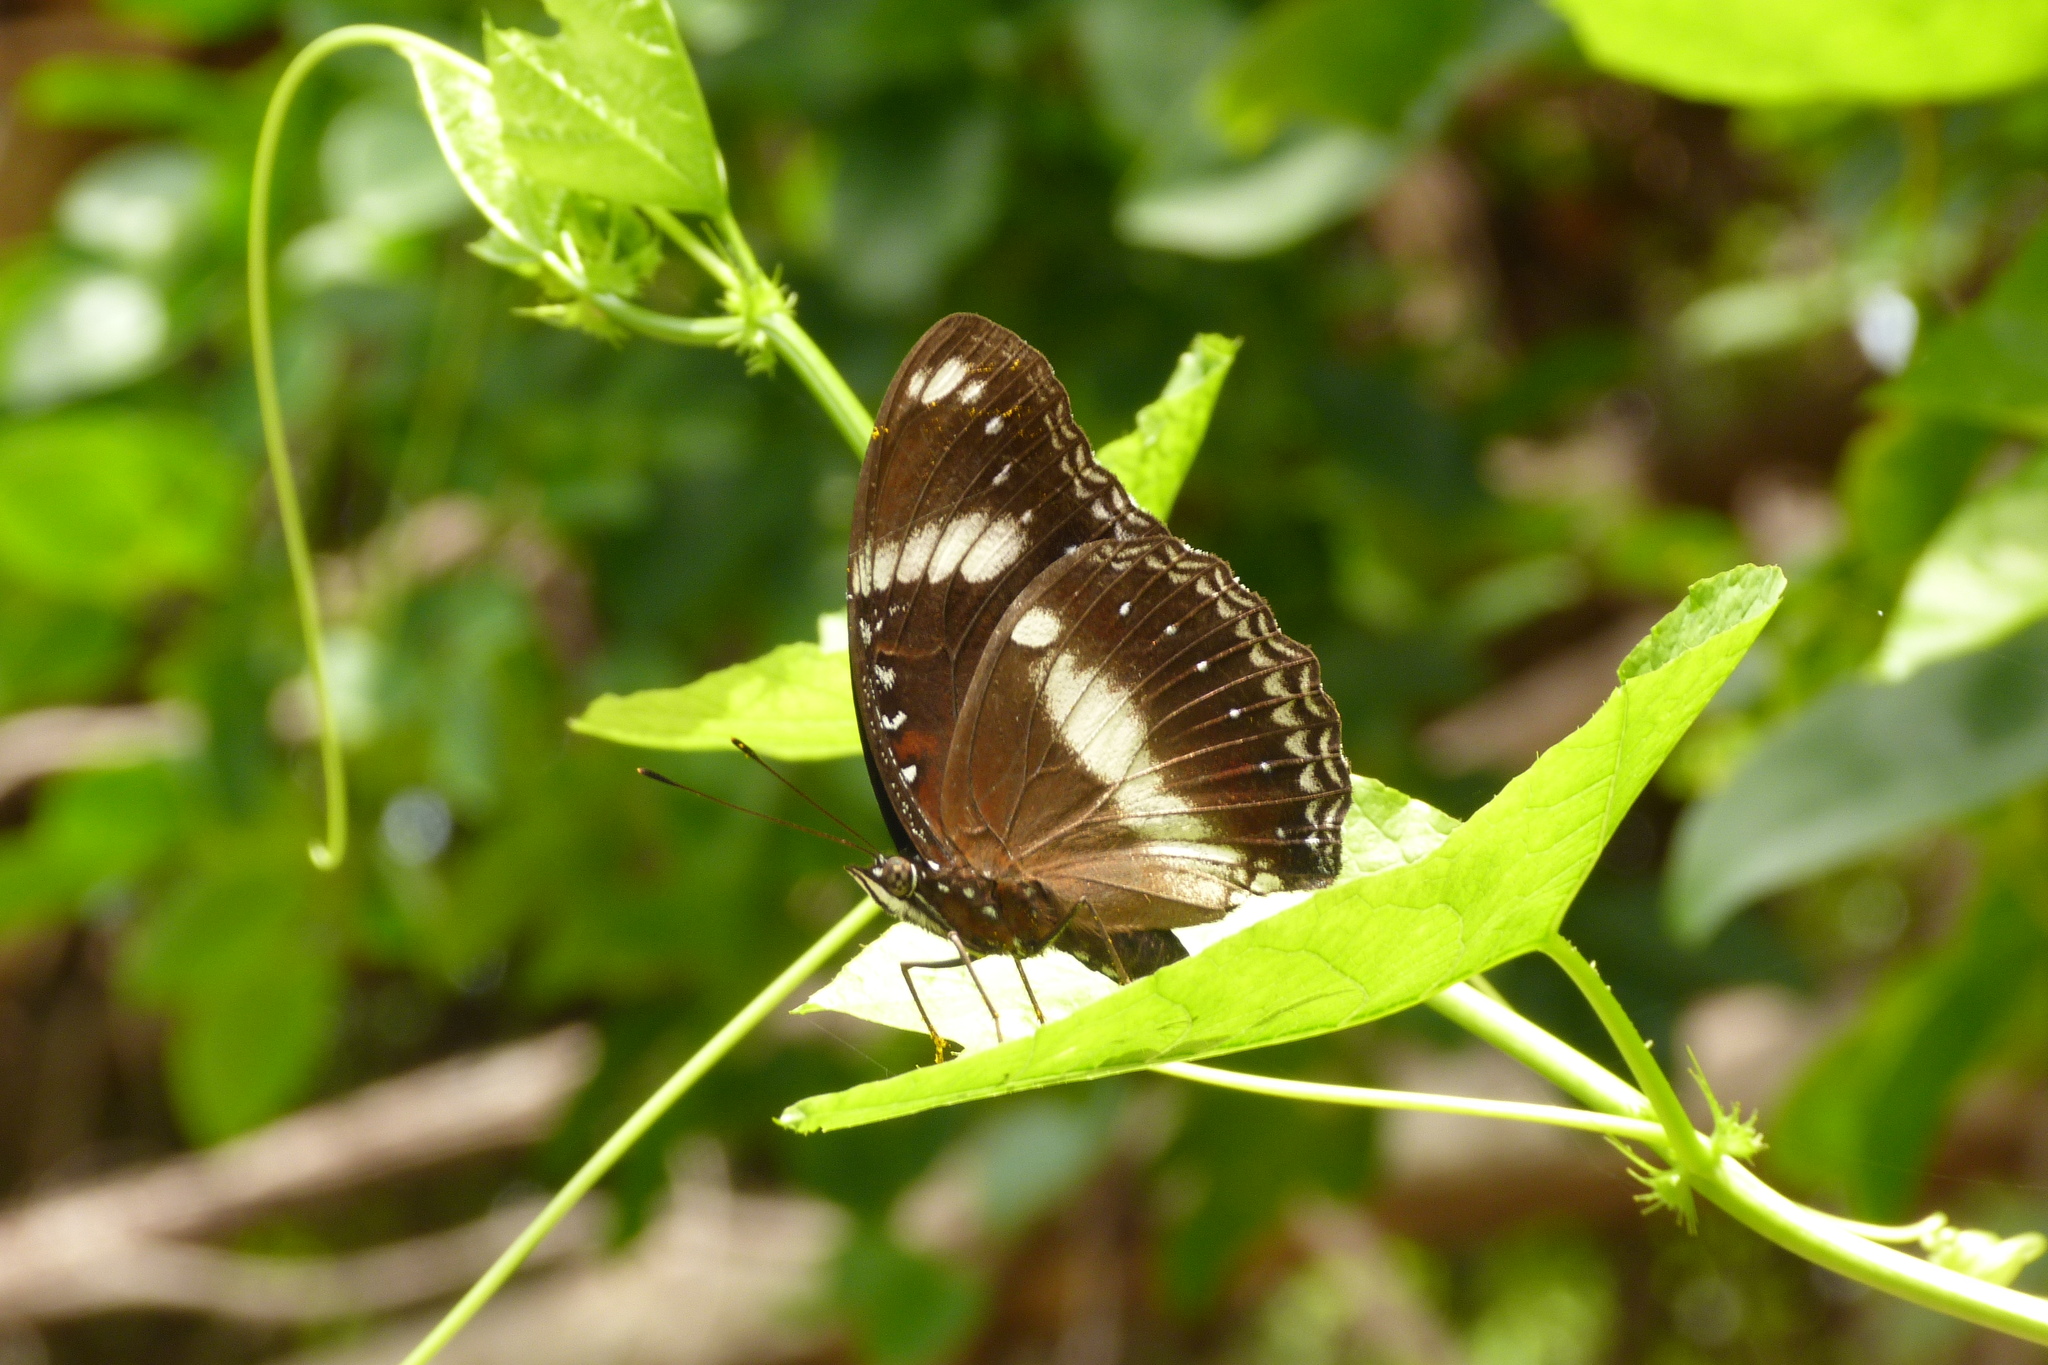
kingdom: Animalia
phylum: Arthropoda
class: Insecta
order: Lepidoptera
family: Nymphalidae
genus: Hypolimnas
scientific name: Hypolimnas bolina
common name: Great eggfly
